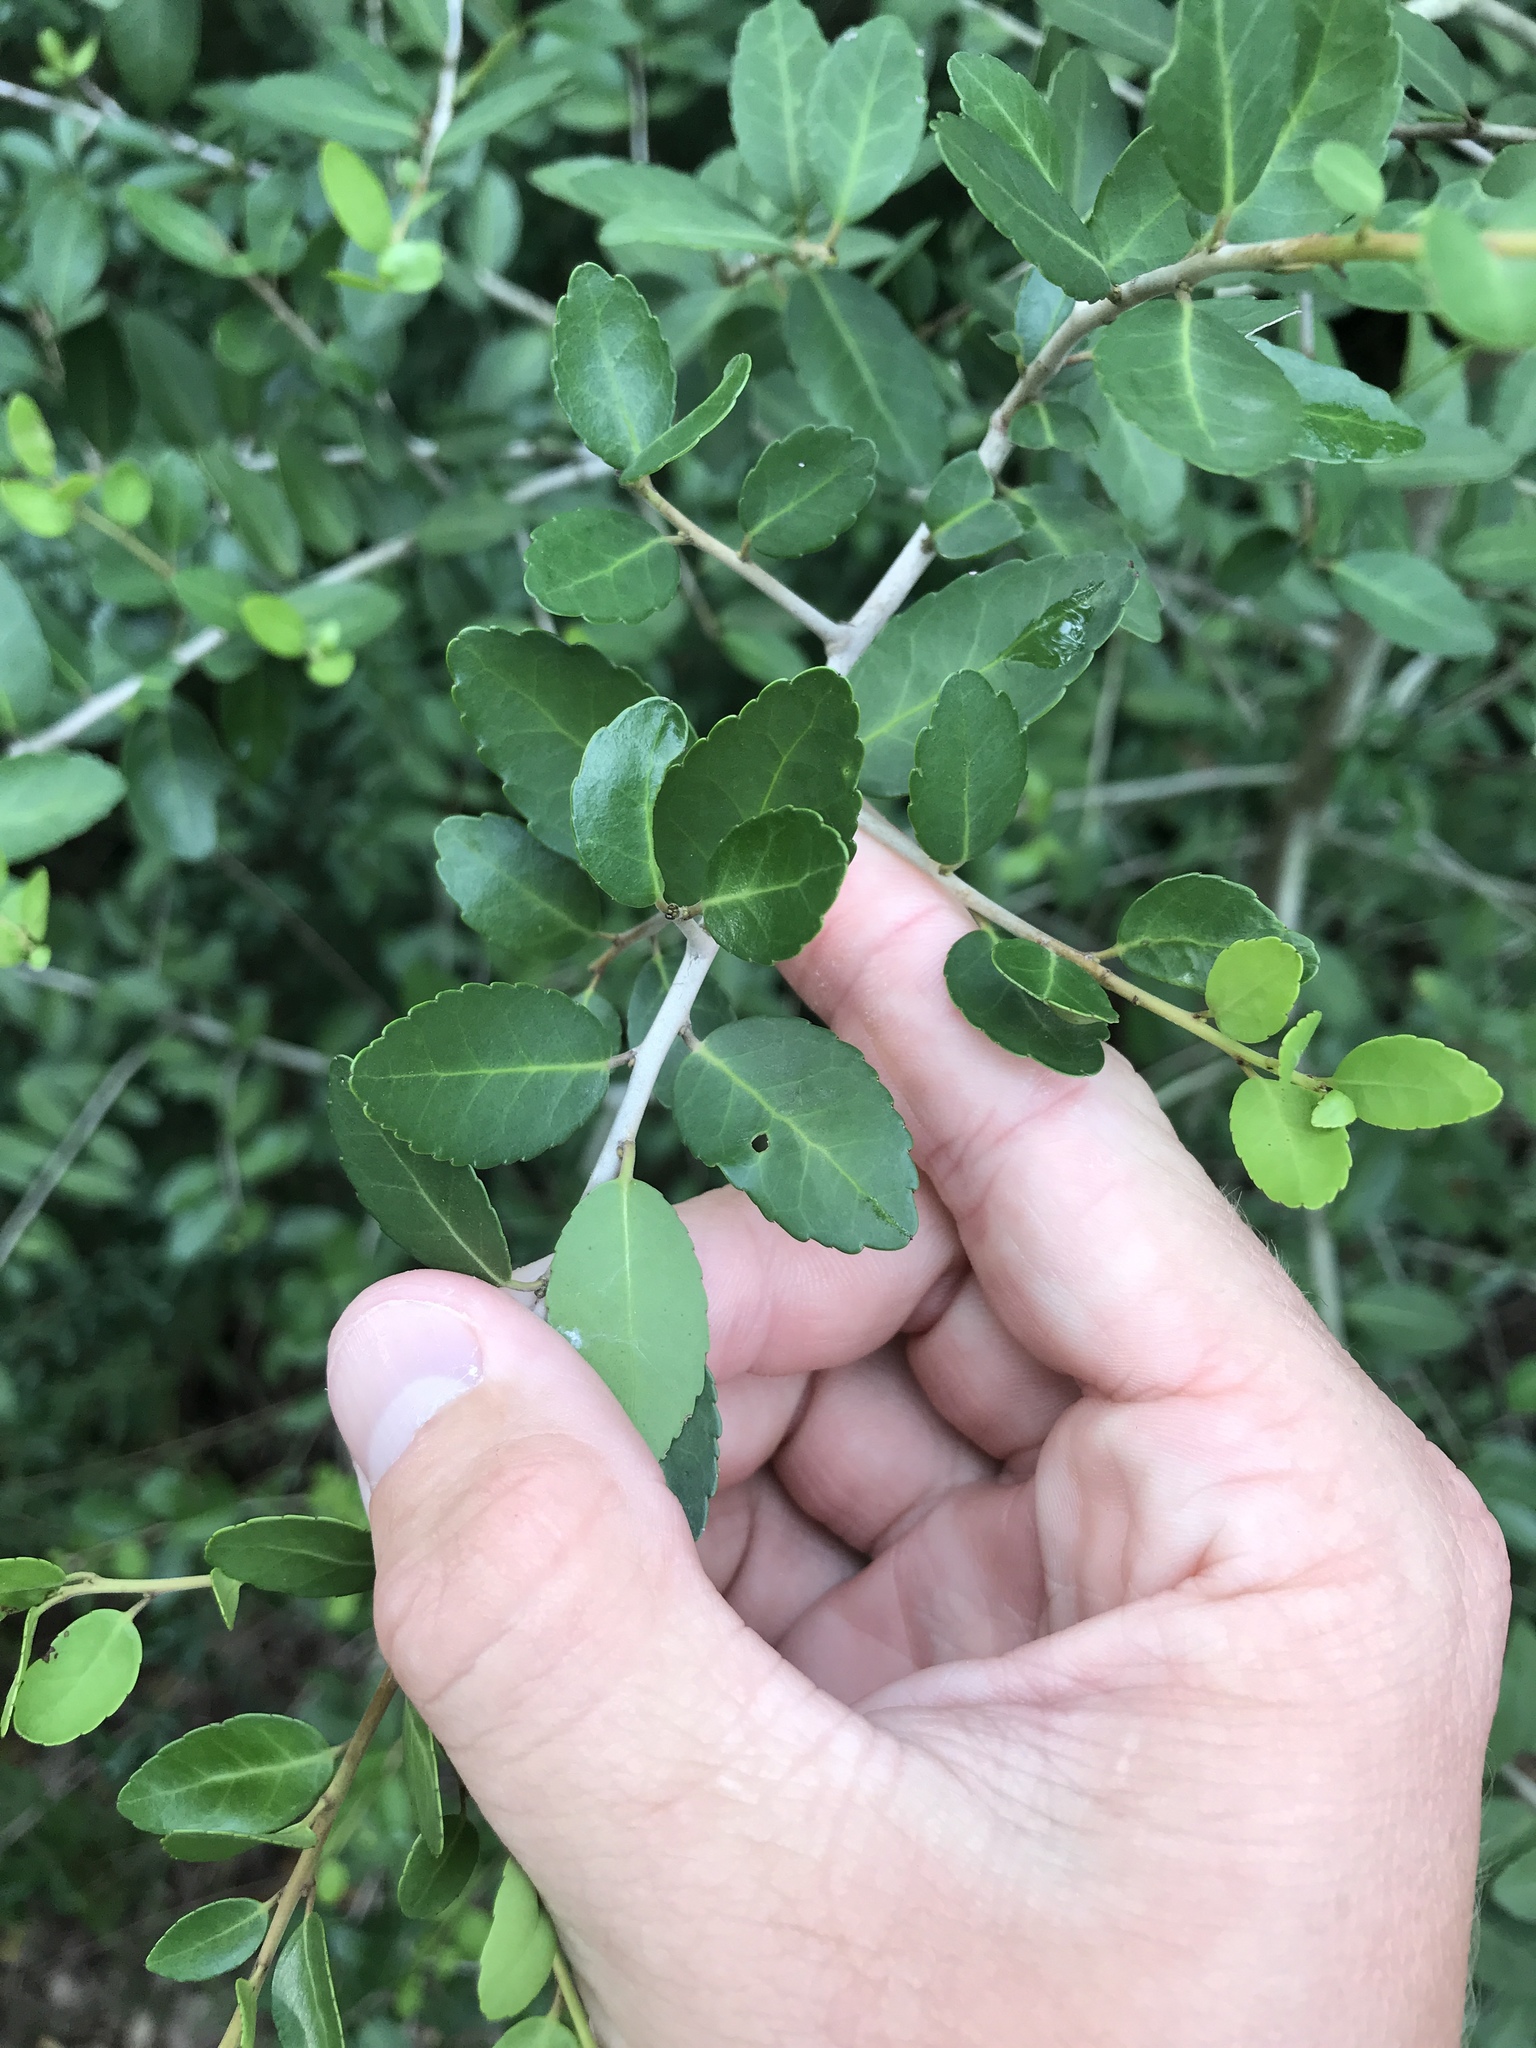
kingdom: Plantae
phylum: Tracheophyta
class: Magnoliopsida
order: Aquifoliales
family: Aquifoliaceae
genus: Ilex
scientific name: Ilex vomitoria
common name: Yaupon holly
